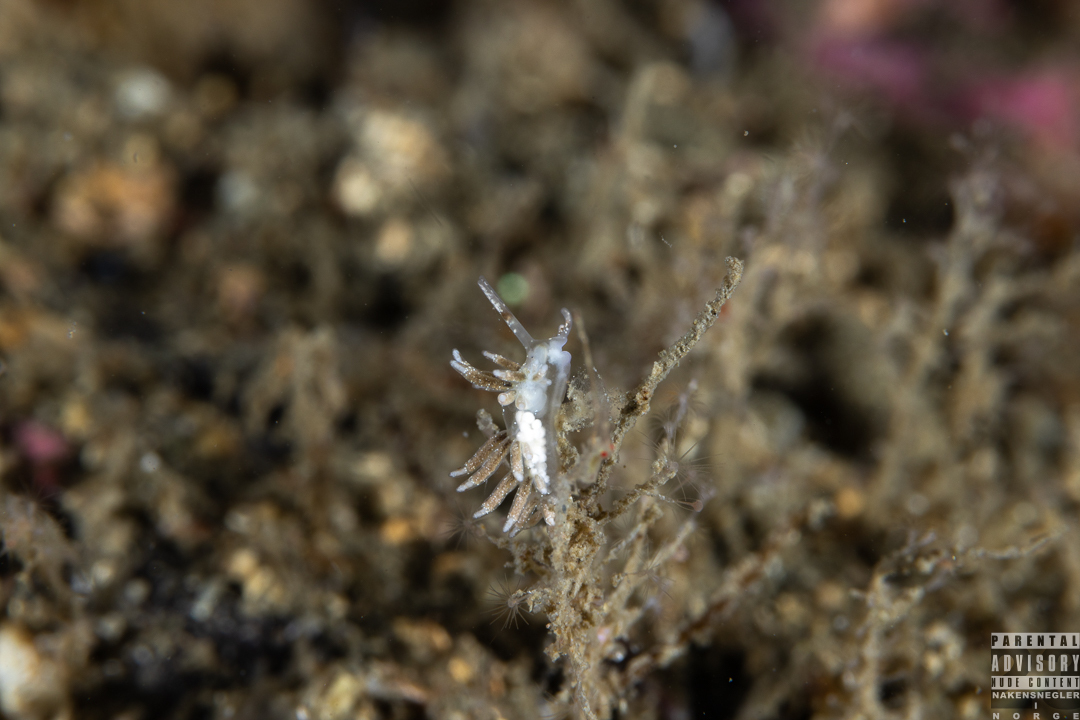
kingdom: Animalia
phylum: Mollusca
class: Gastropoda
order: Nudibranchia
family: Trinchesiidae
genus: Rubramoena
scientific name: Rubramoena amoena
